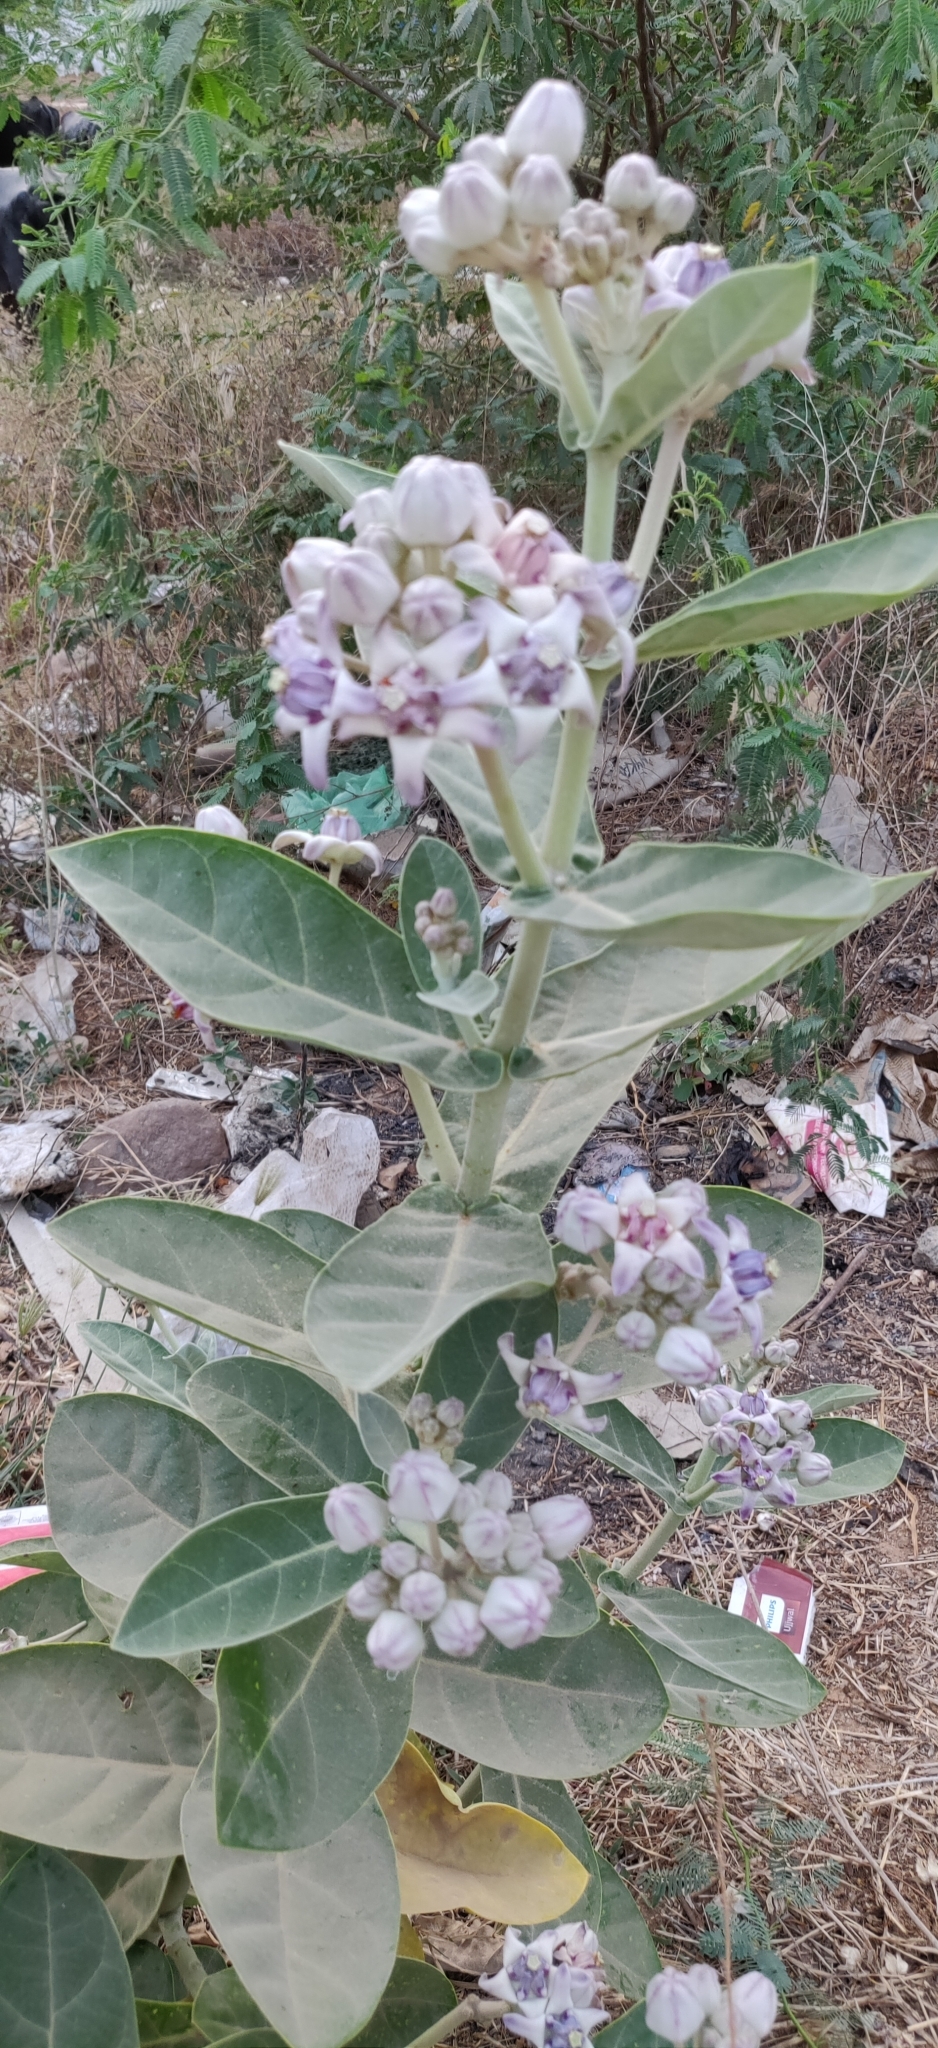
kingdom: Plantae
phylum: Tracheophyta
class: Magnoliopsida
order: Gentianales
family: Apocynaceae
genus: Calotropis
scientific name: Calotropis gigantea
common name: Crown flower
